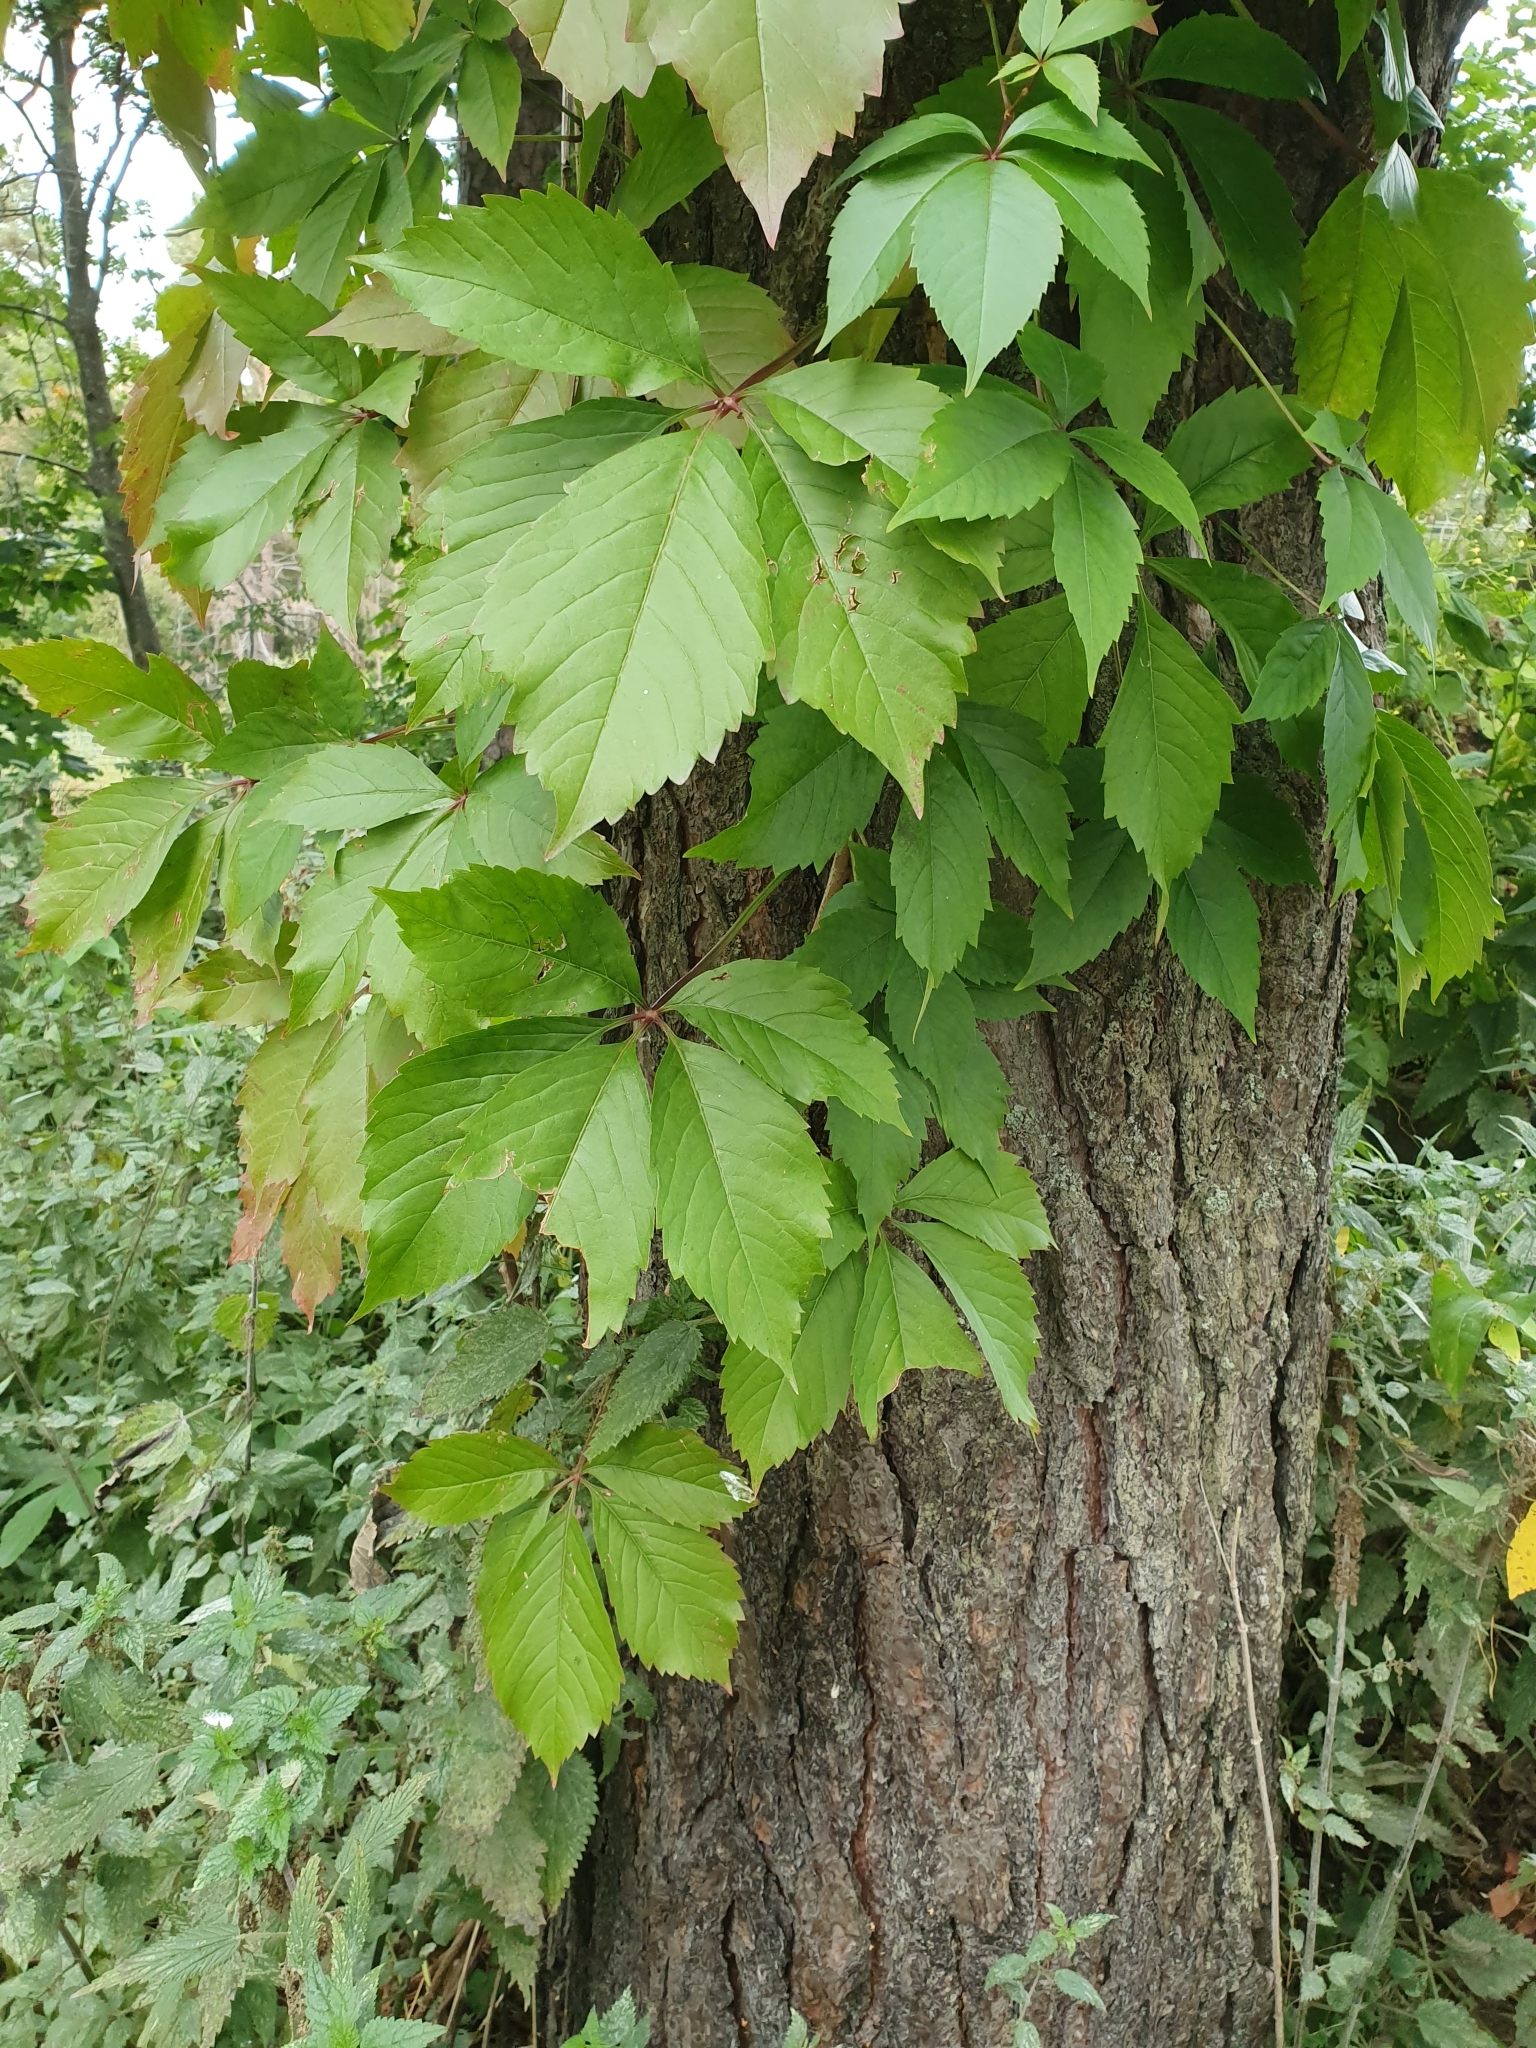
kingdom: Plantae
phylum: Tracheophyta
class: Magnoliopsida
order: Vitales
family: Vitaceae
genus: Parthenocissus
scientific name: Parthenocissus quinquefolia
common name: Virginia-creeper
